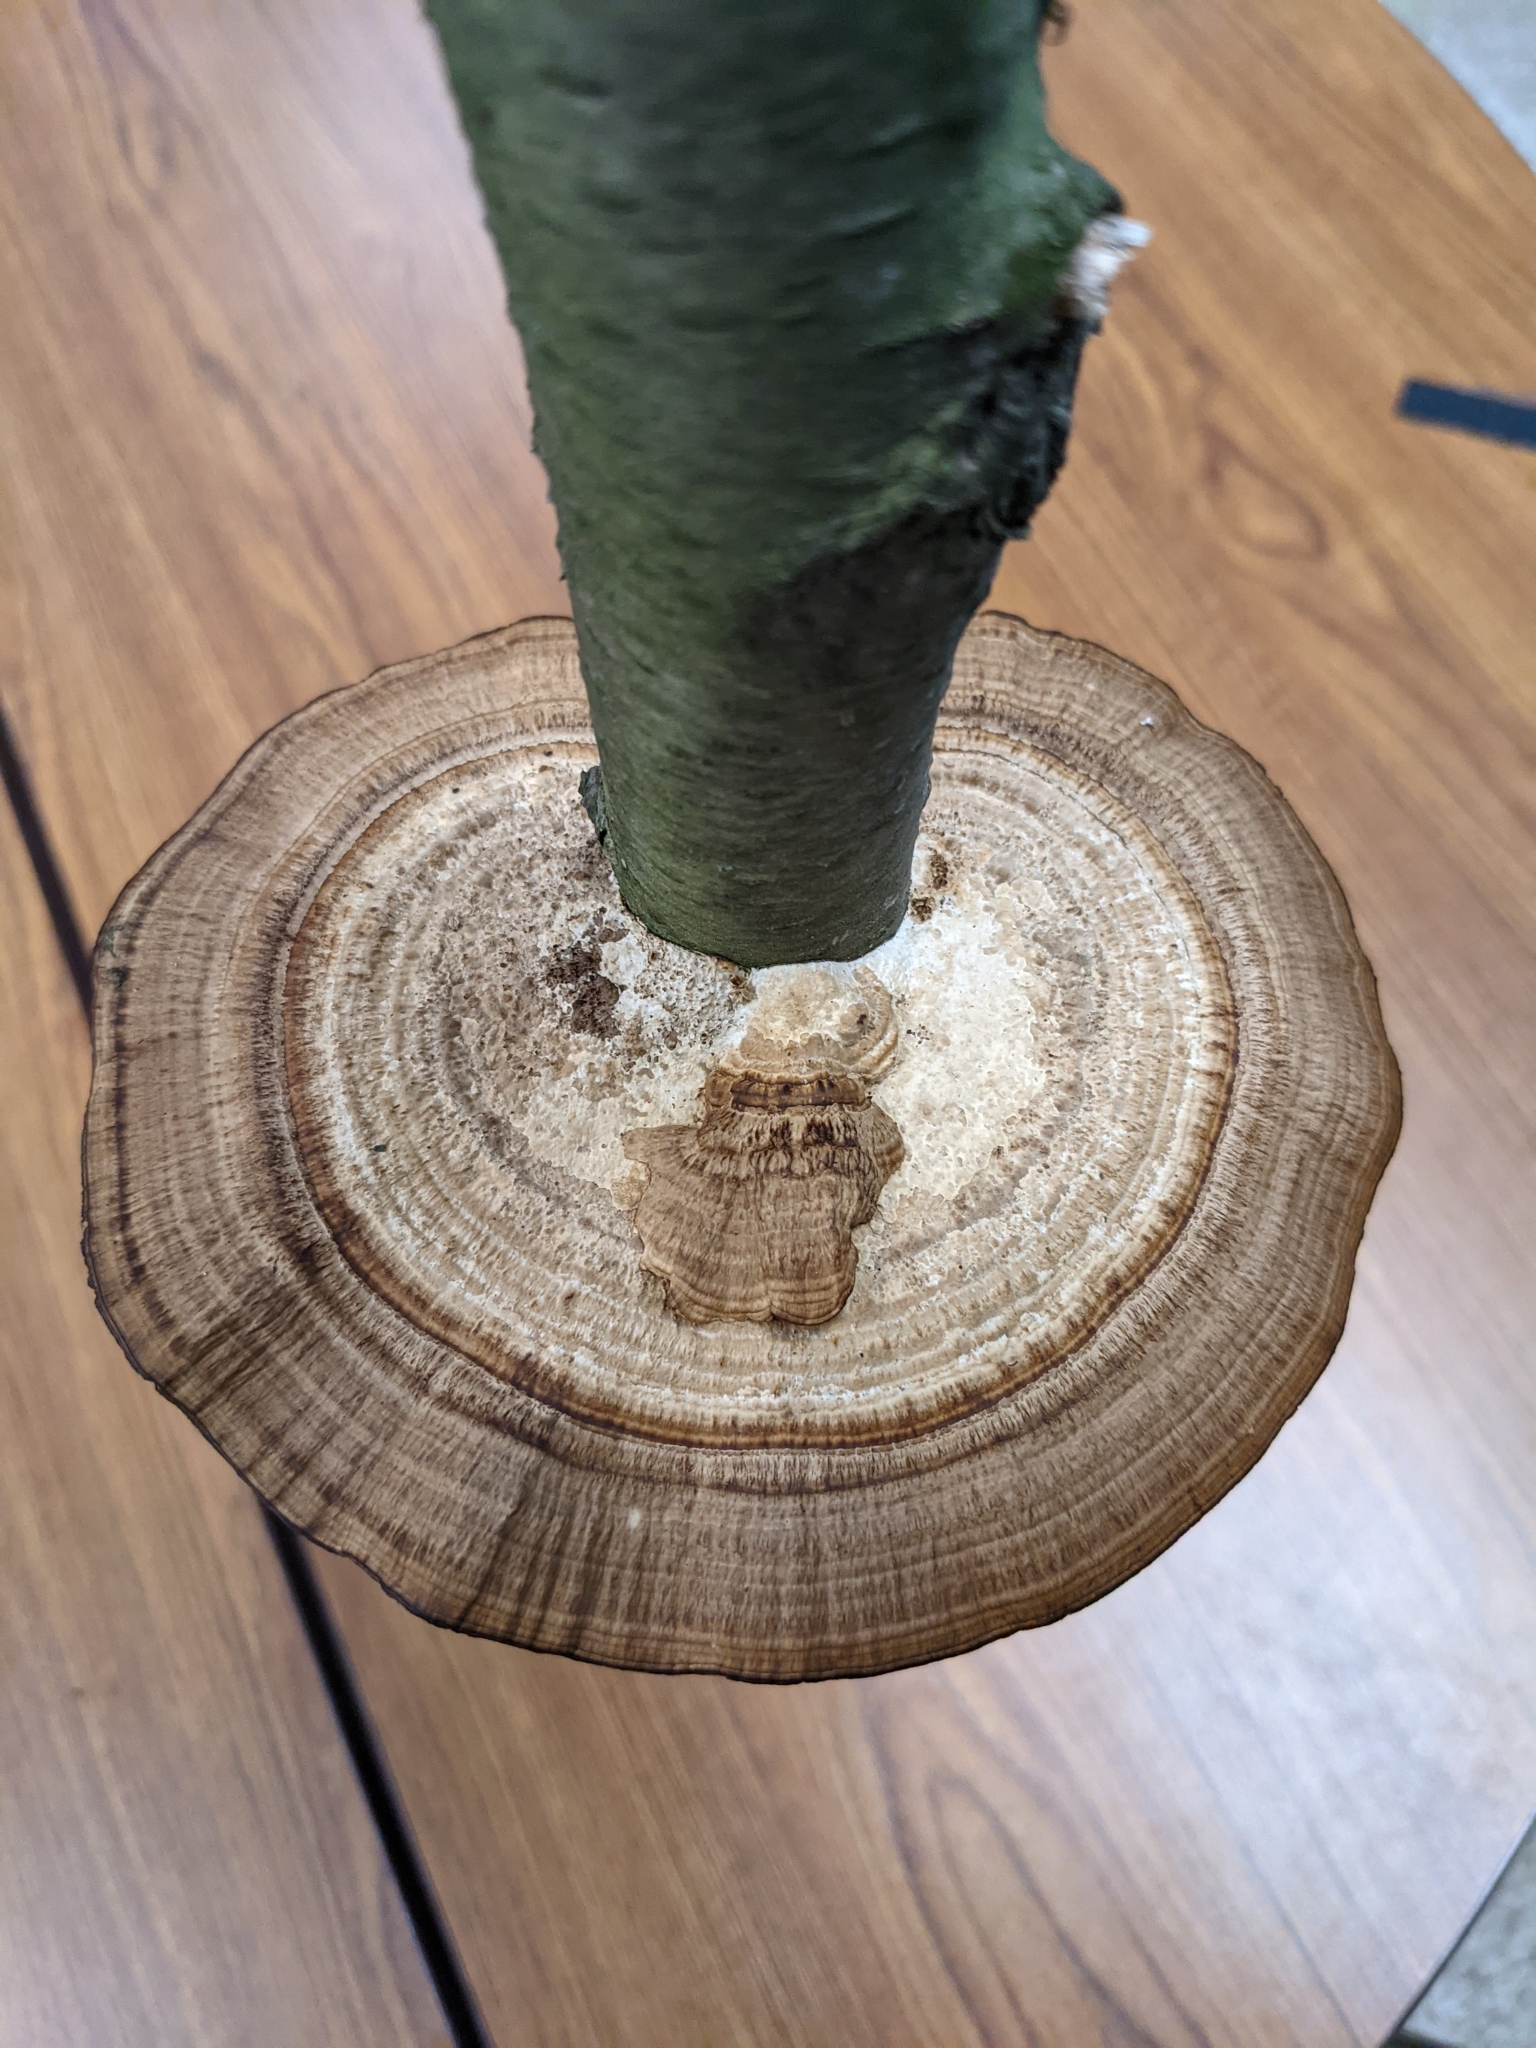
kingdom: Fungi
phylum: Basidiomycota
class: Agaricomycetes
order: Polyporales
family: Polyporaceae
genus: Daedaleopsis
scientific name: Daedaleopsis confragosa
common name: Blushing bracket
